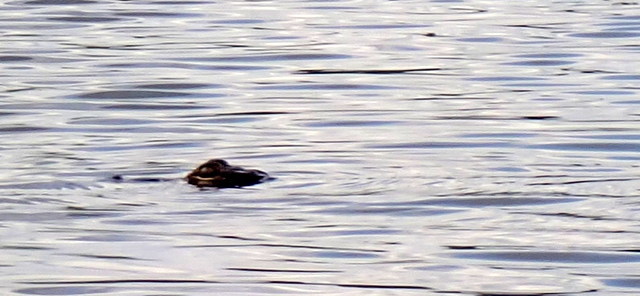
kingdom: Animalia
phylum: Chordata
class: Crocodylia
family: Alligatoridae
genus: Alligator
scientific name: Alligator mississippiensis
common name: American alligator
